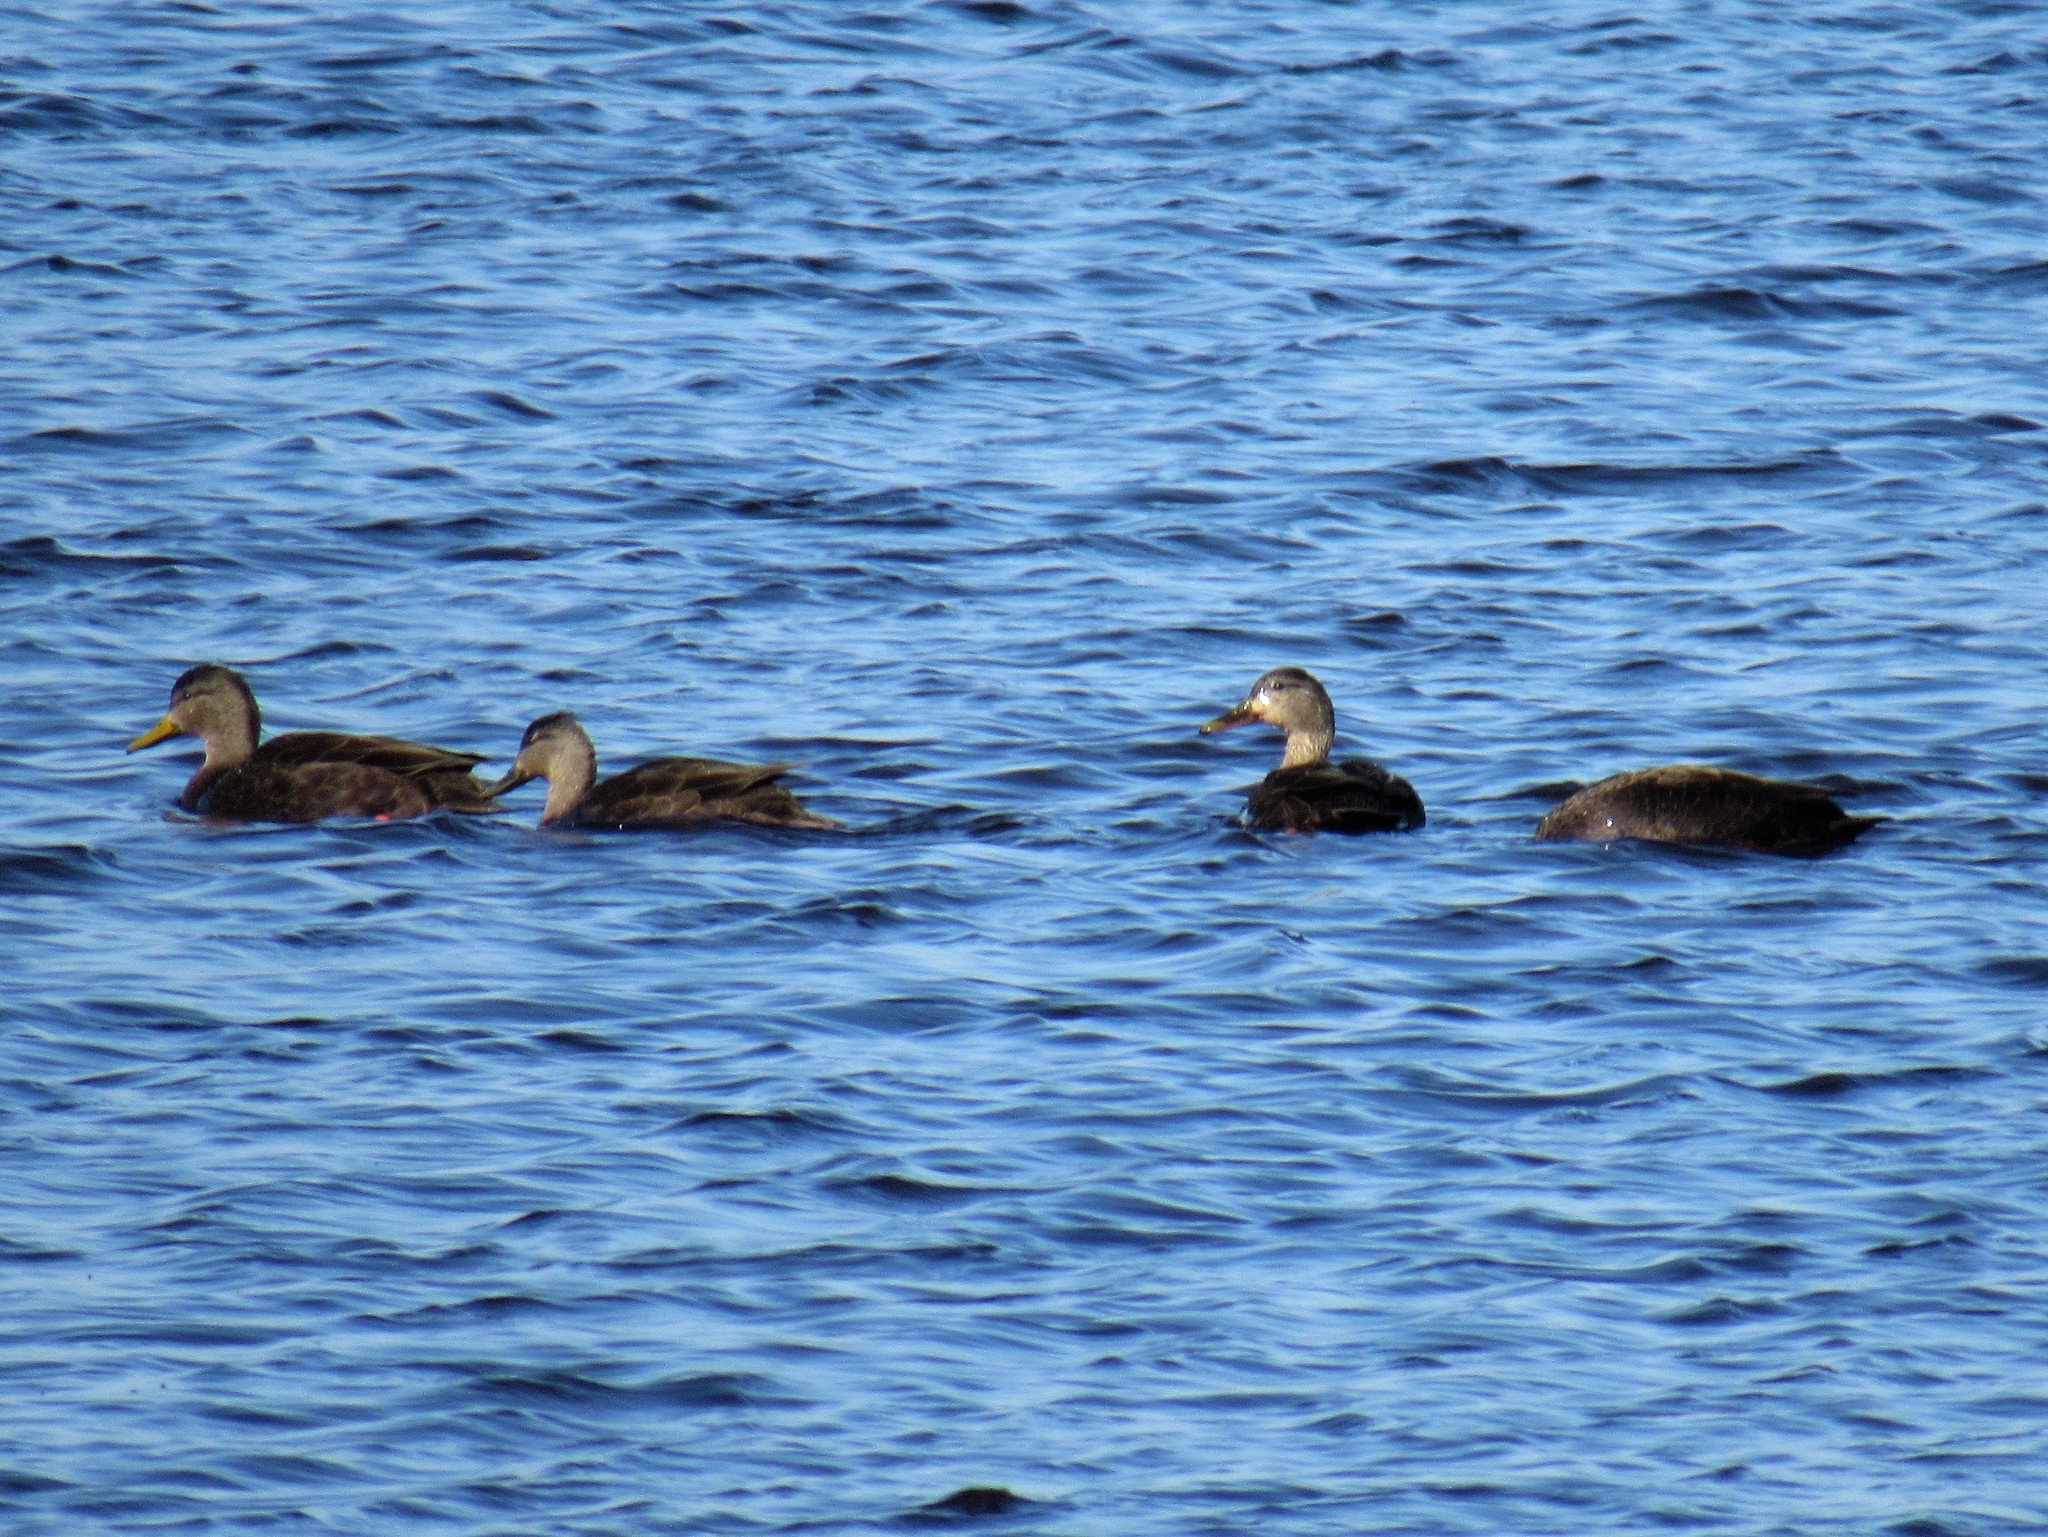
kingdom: Animalia
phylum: Chordata
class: Aves
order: Anseriformes
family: Anatidae
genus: Anas
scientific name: Anas rubripes
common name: American black duck
